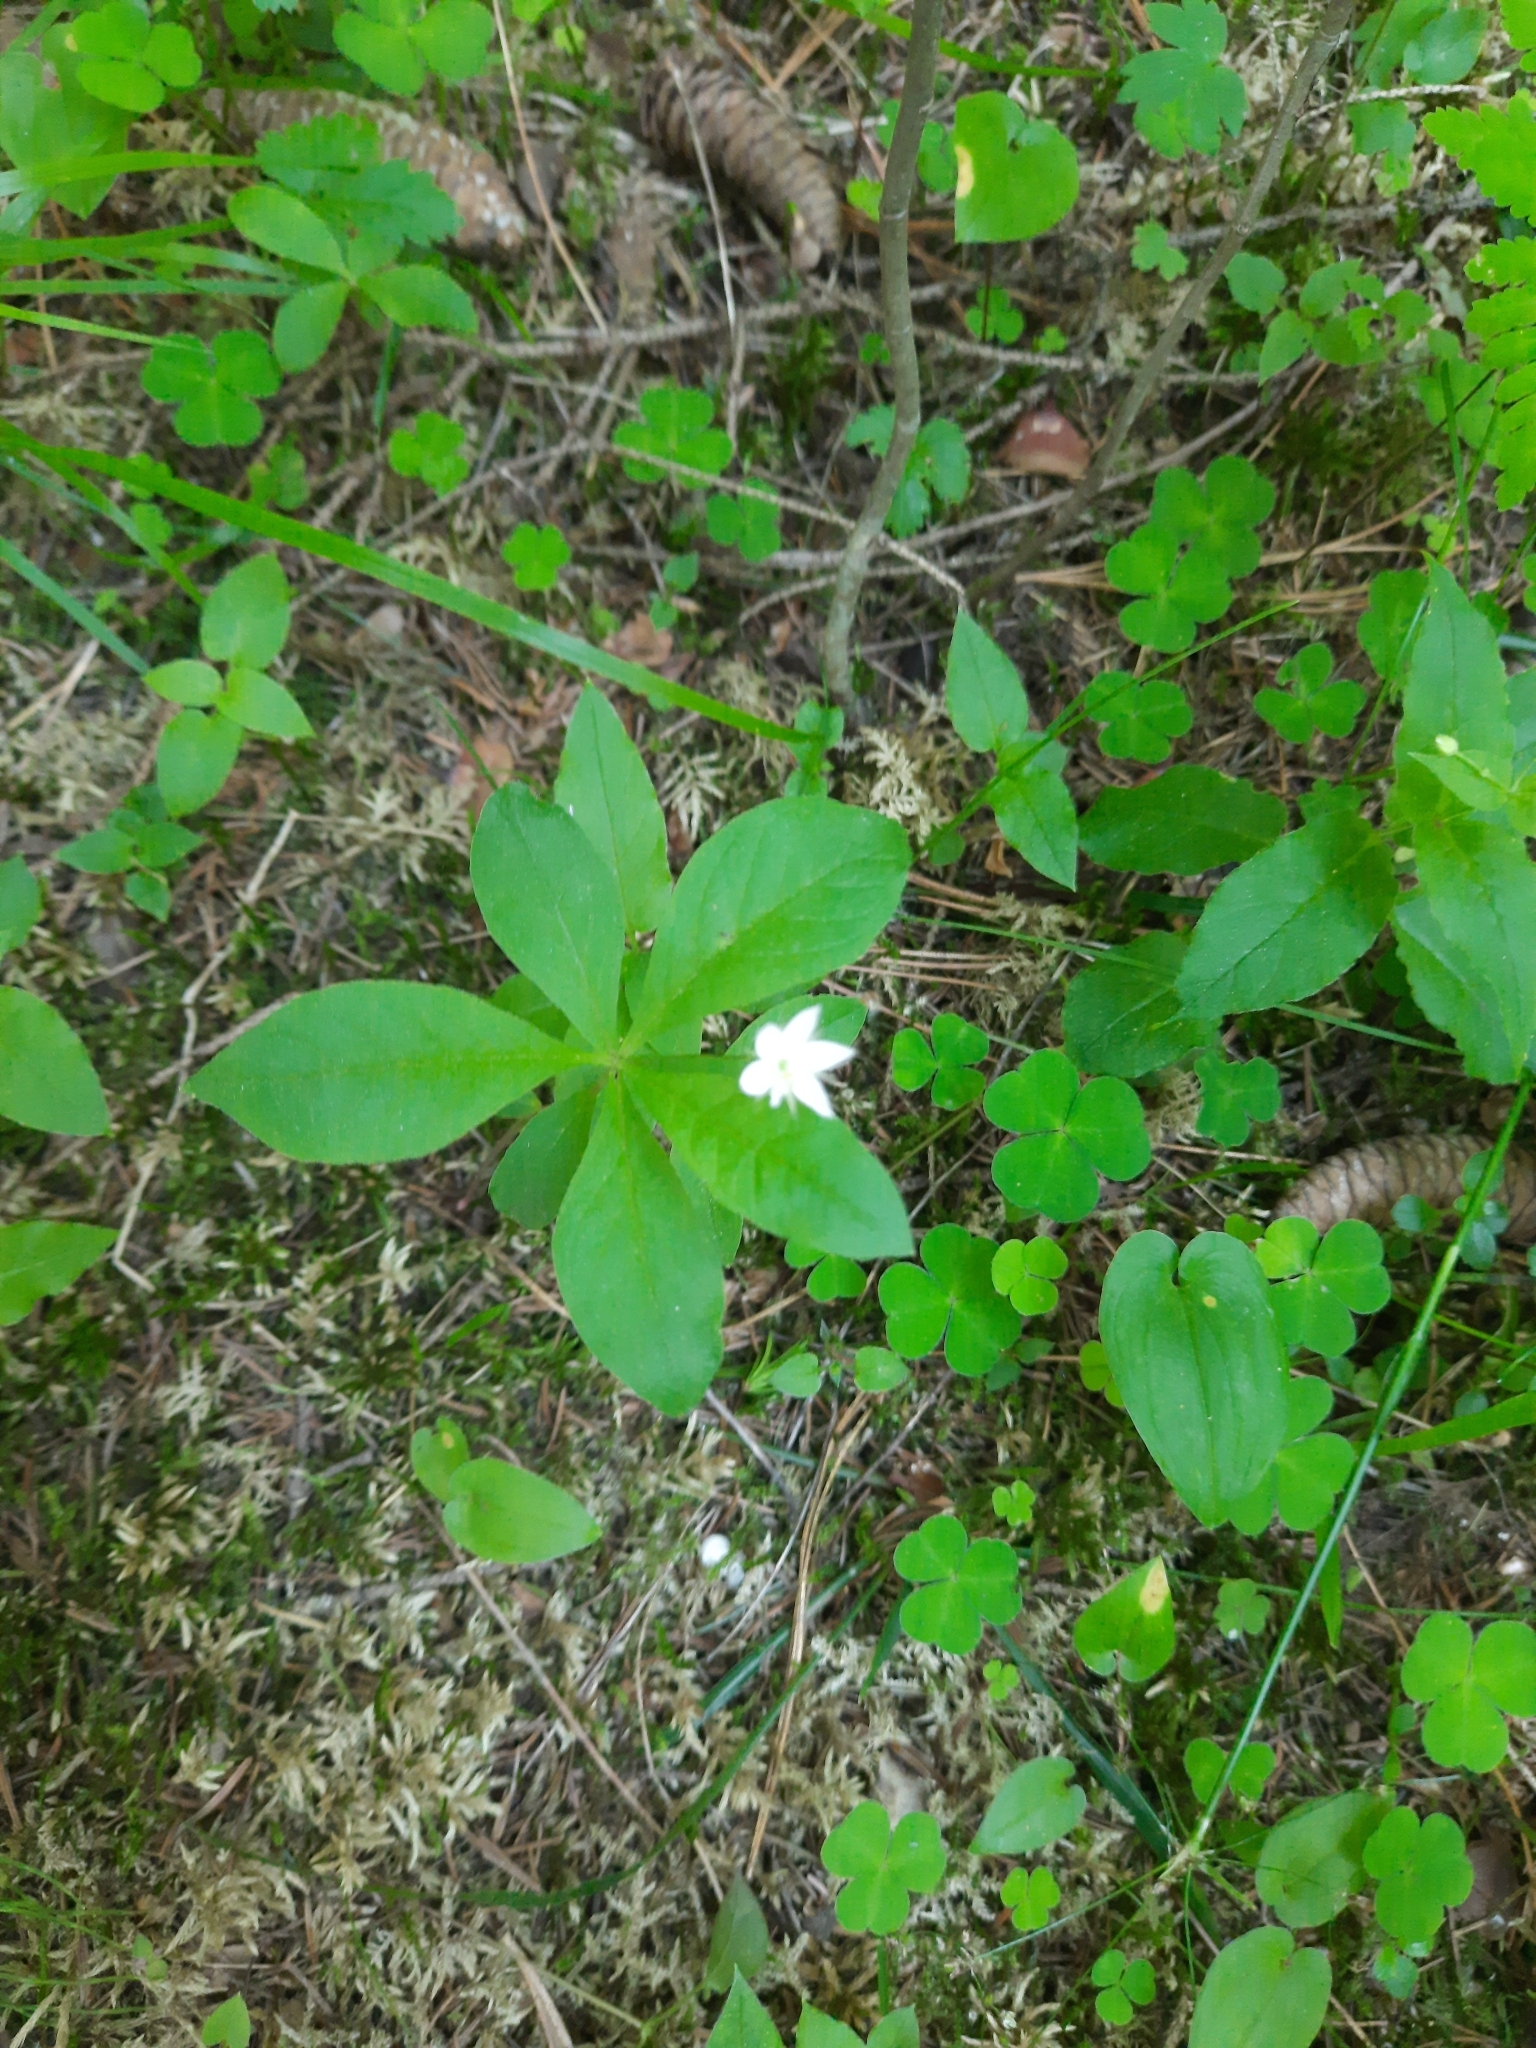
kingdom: Plantae
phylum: Tracheophyta
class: Magnoliopsida
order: Ericales
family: Primulaceae
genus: Lysimachia
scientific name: Lysimachia europaea
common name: Arctic starflower
